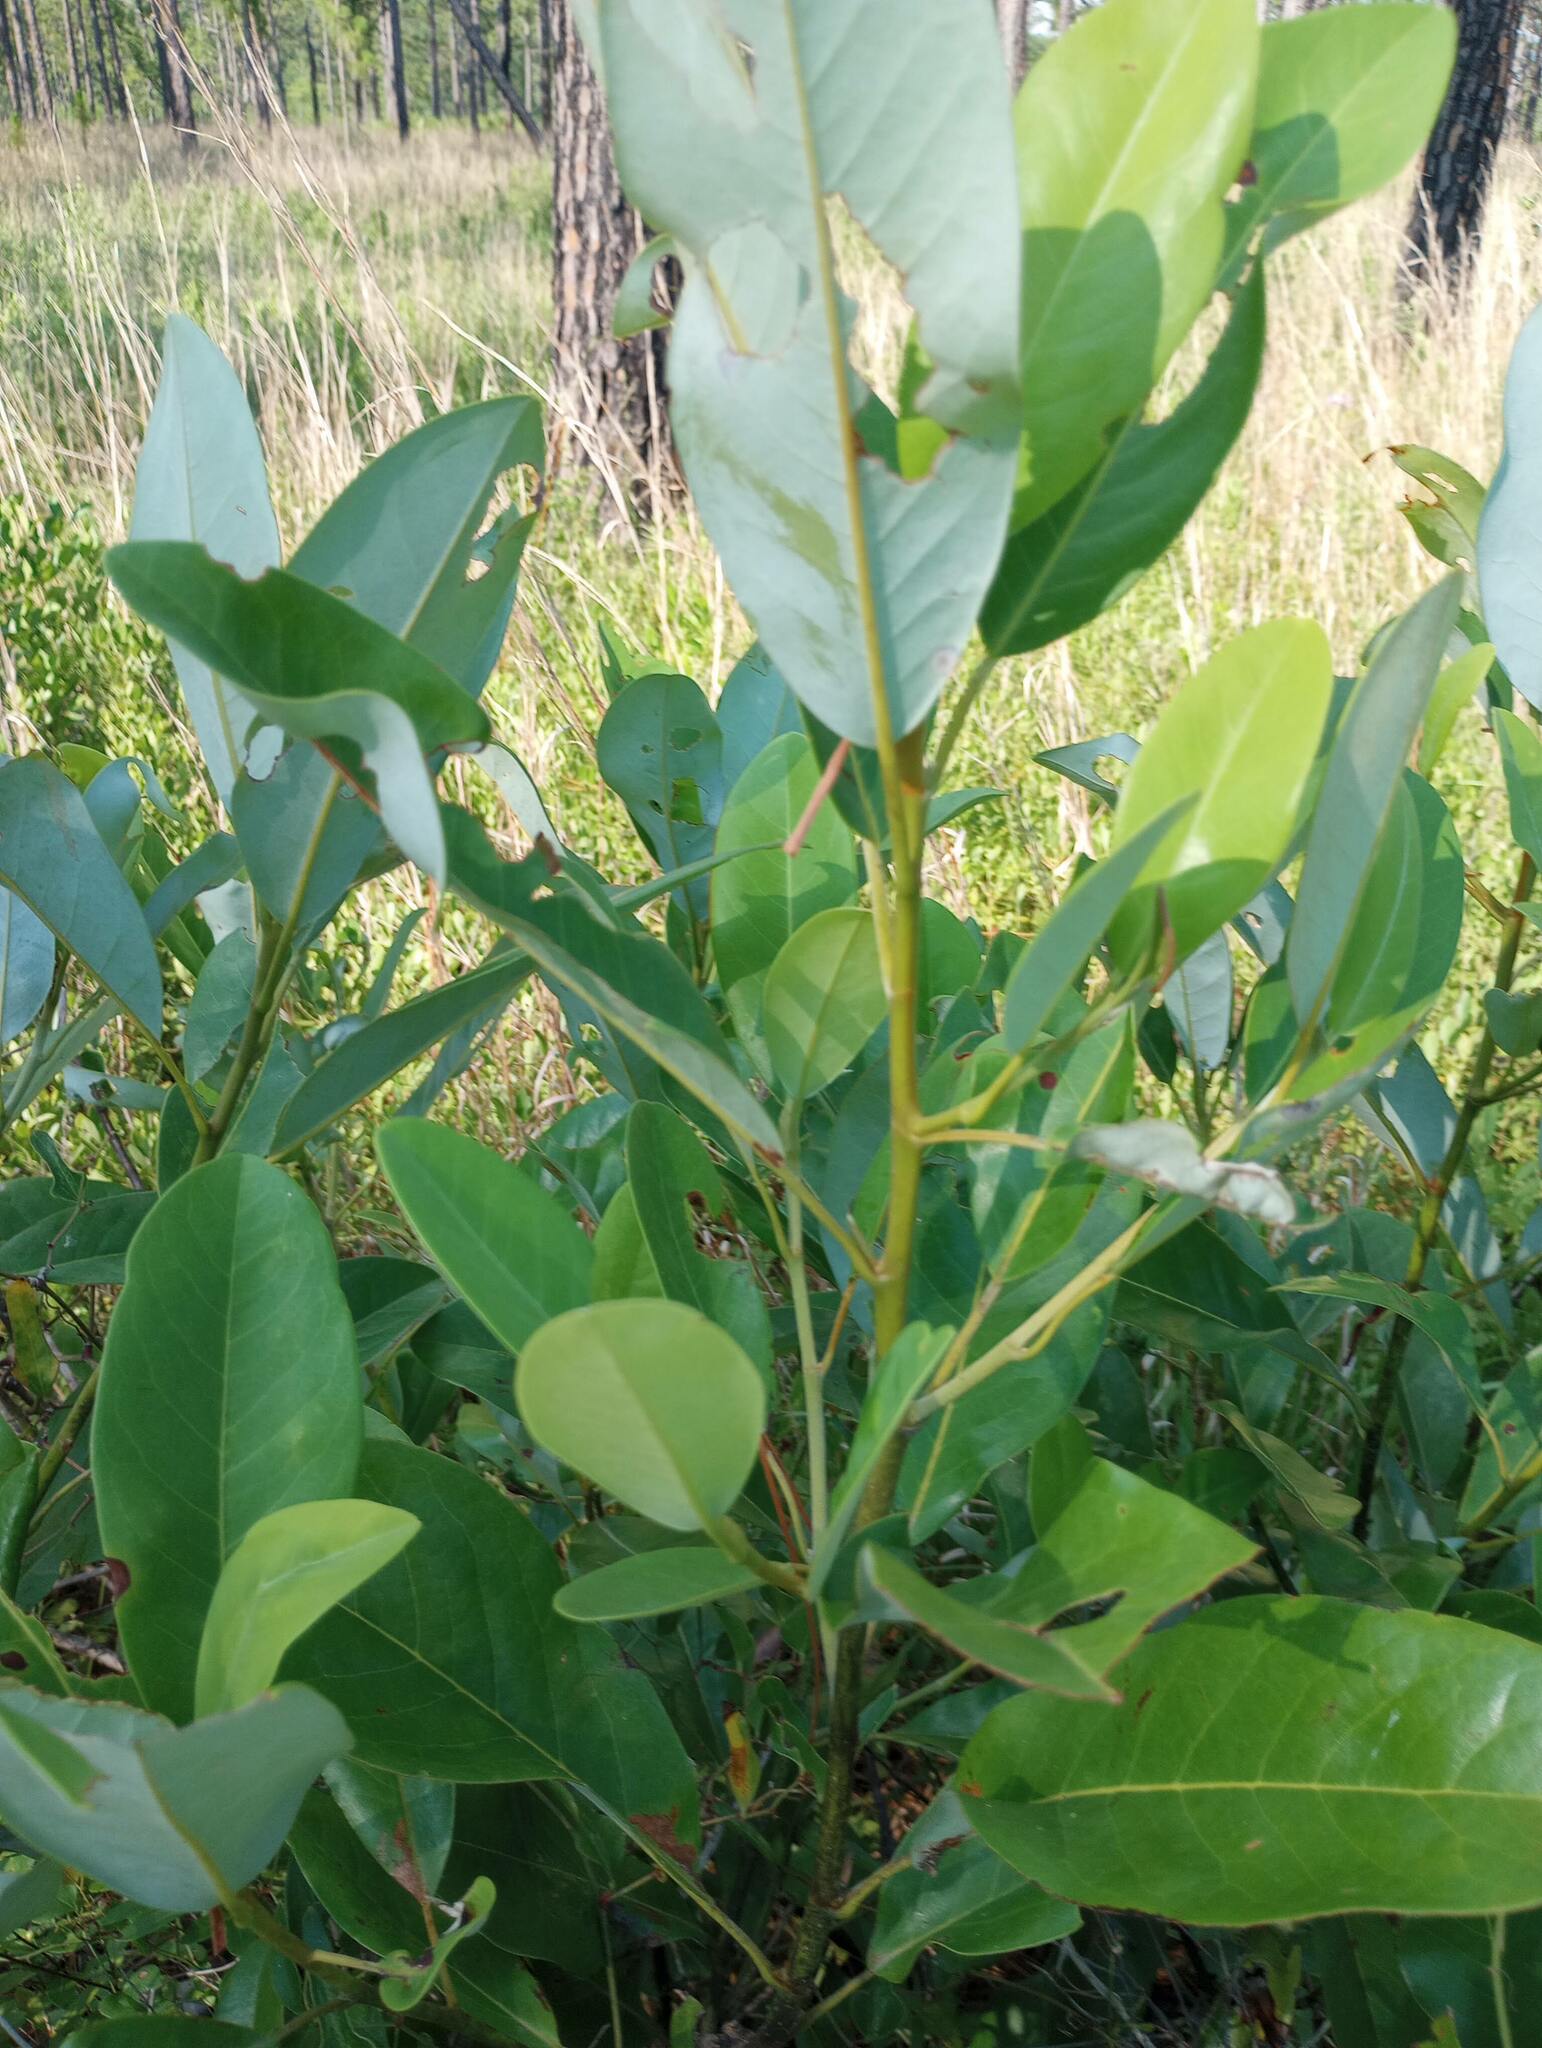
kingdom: Plantae
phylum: Tracheophyta
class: Magnoliopsida
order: Magnoliales
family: Magnoliaceae
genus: Magnolia
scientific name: Magnolia virginiana
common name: Swamp bay
